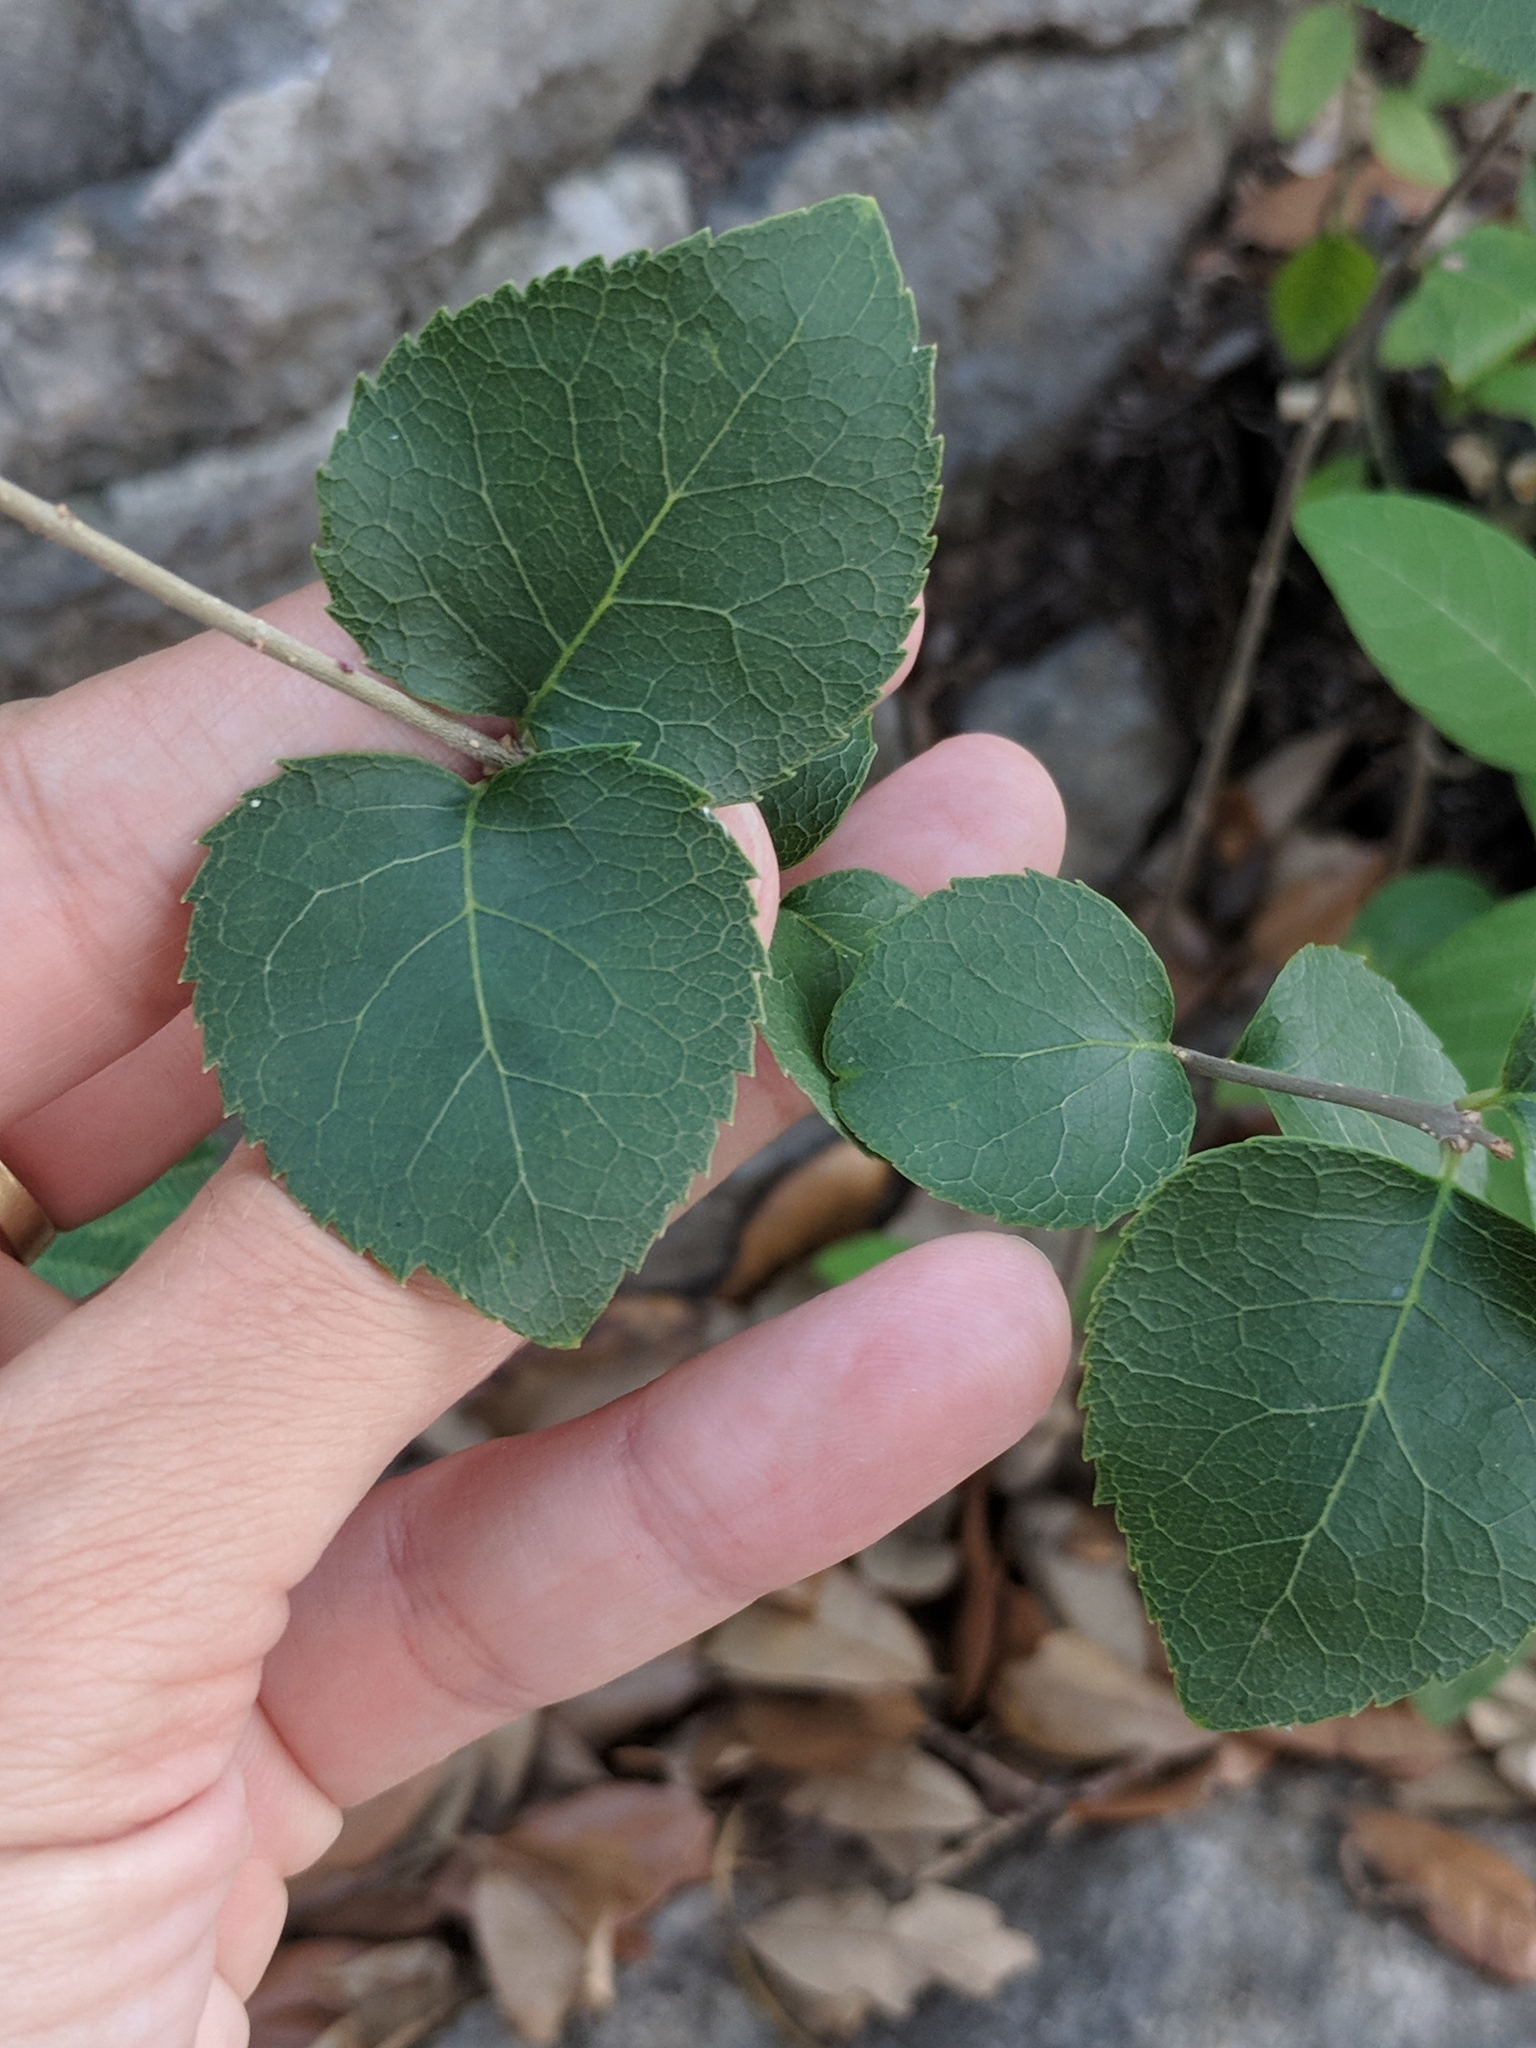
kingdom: Plantae
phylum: Tracheophyta
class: Magnoliopsida
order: Lamiales
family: Oleaceae
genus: Forestiera
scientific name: Forestiera reticulata
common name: Netleaf swamp-privet
